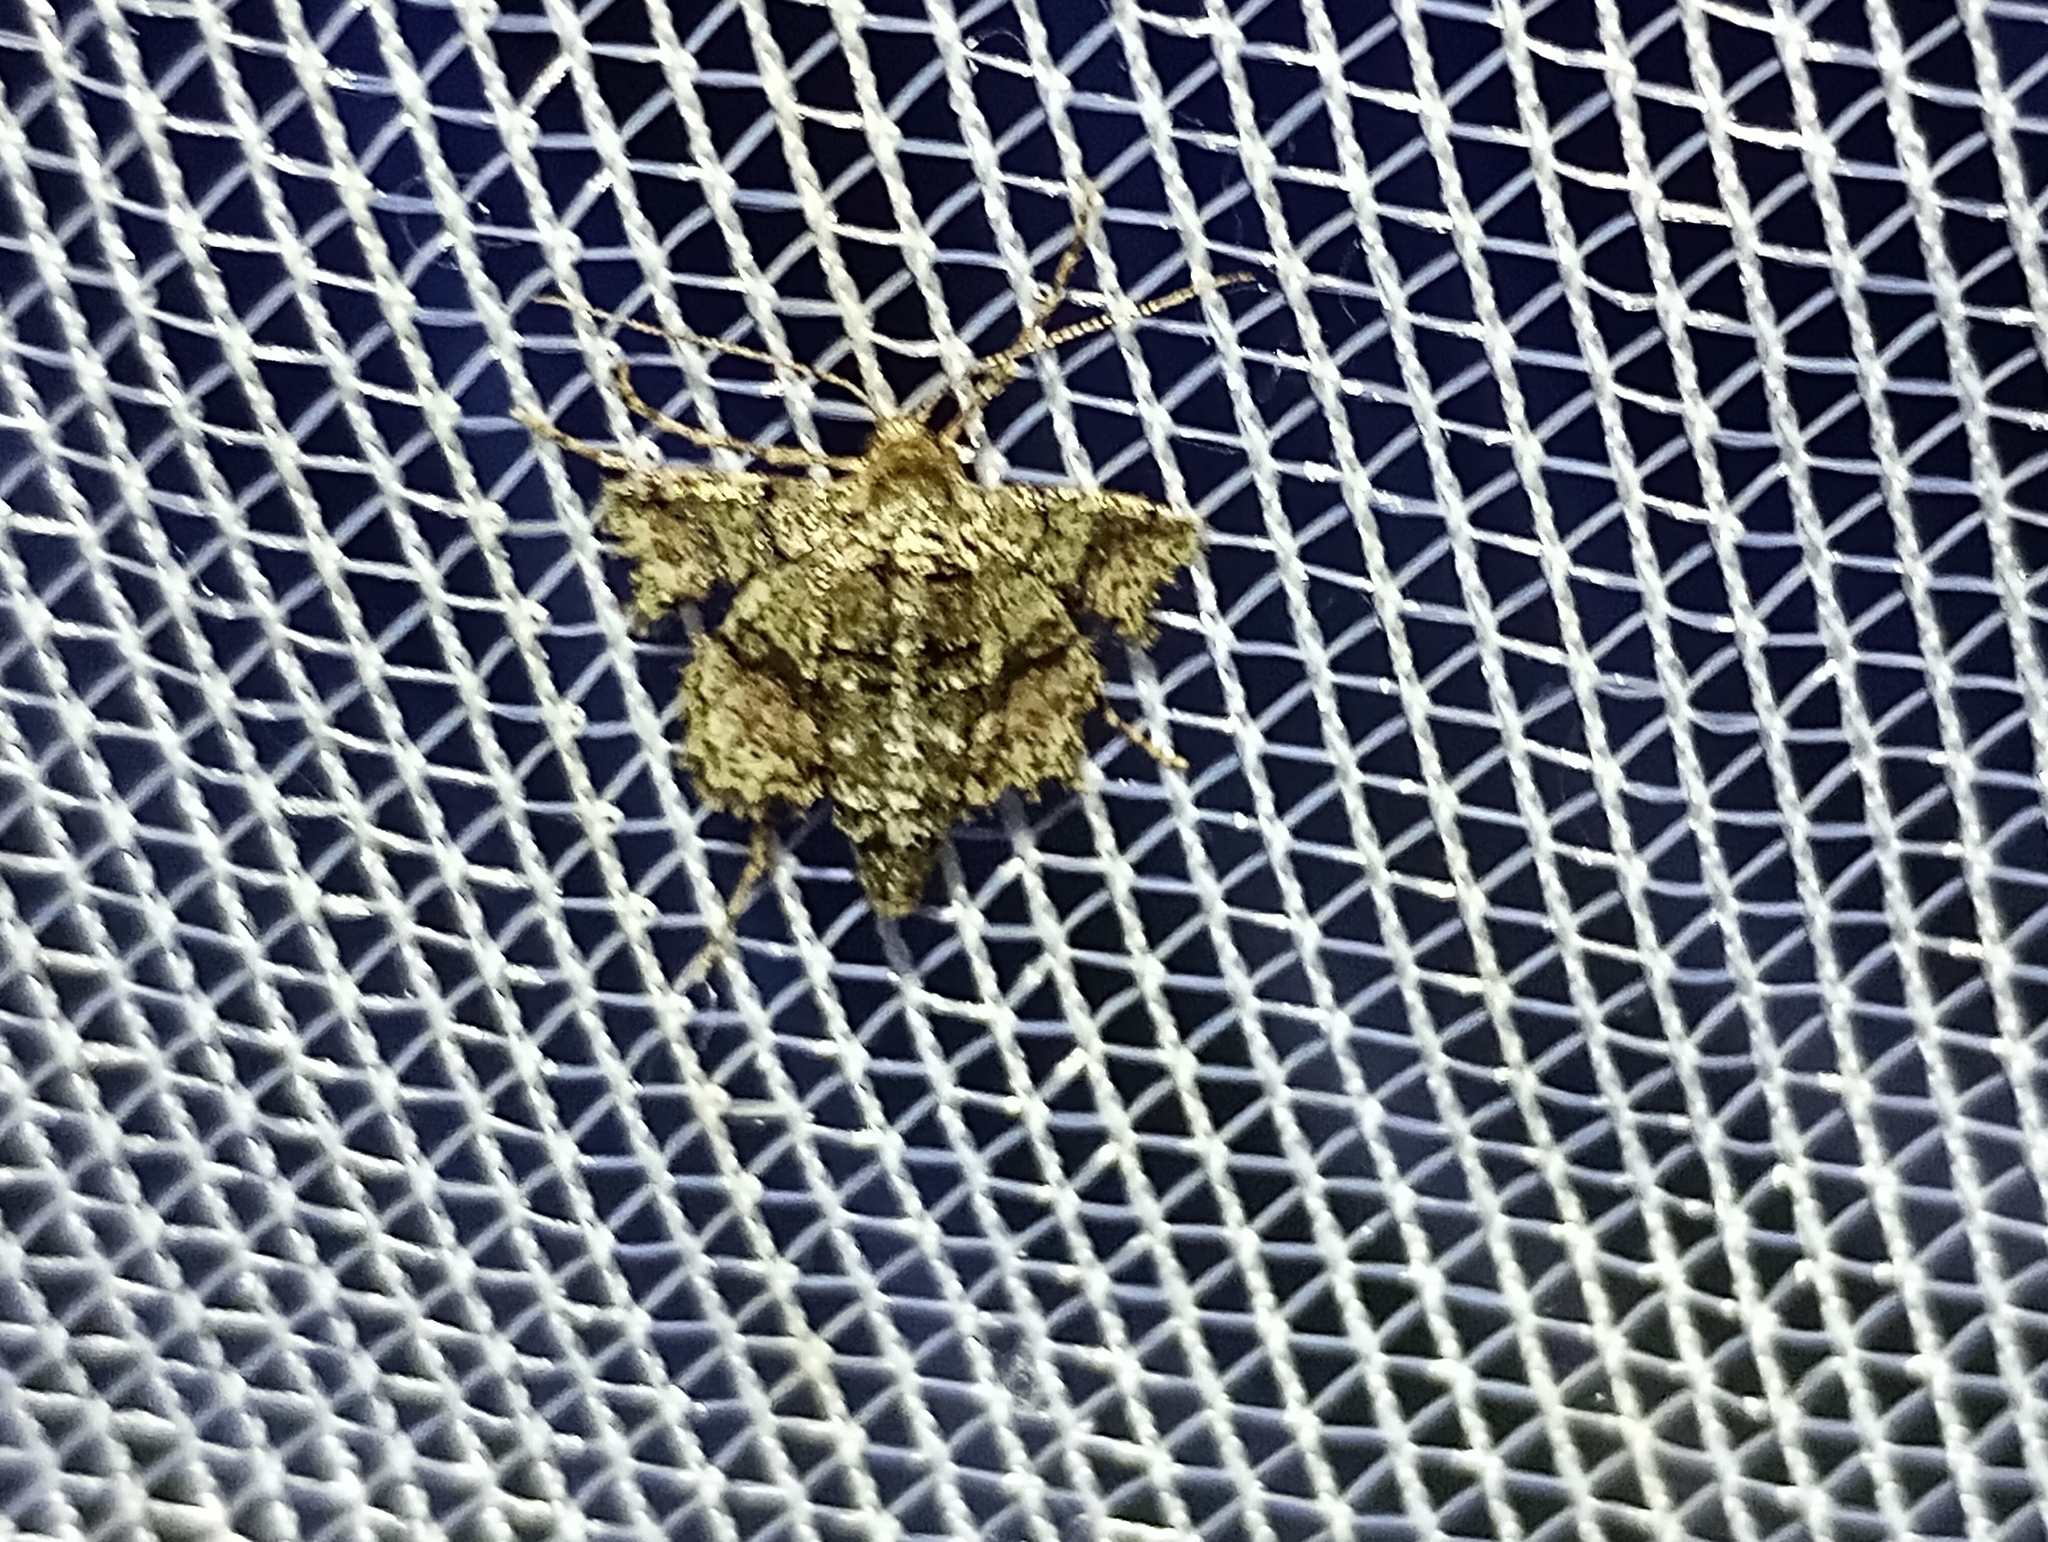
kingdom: Animalia
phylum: Arthropoda
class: Insecta
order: Lepidoptera
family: Geometridae
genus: Agriopis
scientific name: Agriopis marginaria
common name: Dotted border
